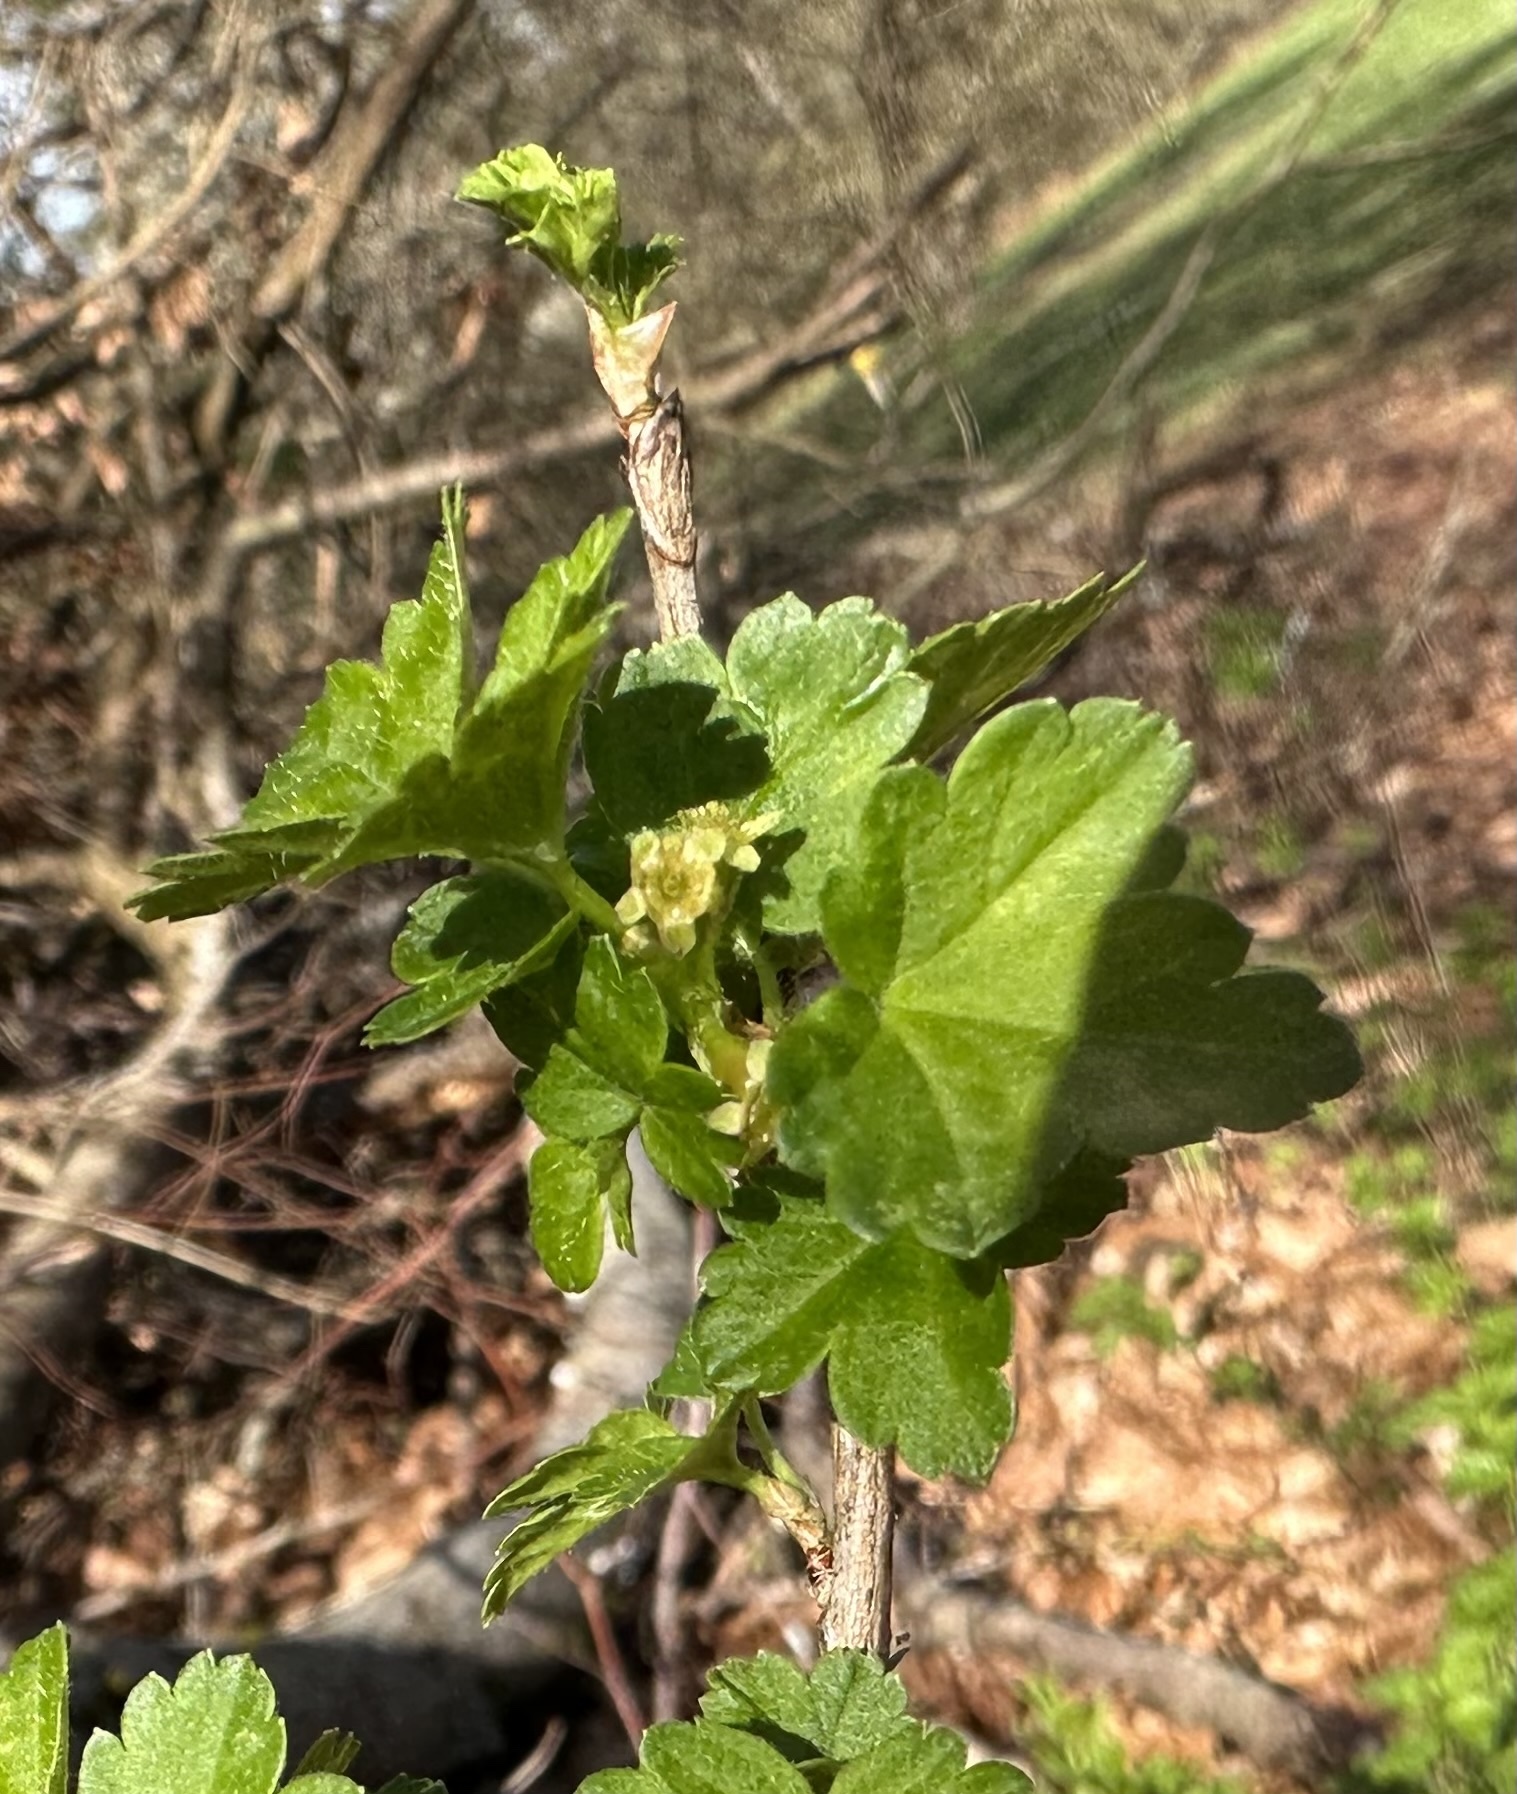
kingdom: Plantae
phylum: Tracheophyta
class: Magnoliopsida
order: Saxifragales
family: Grossulariaceae
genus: Ribes
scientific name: Ribes uva-crispa
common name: Gooseberry
